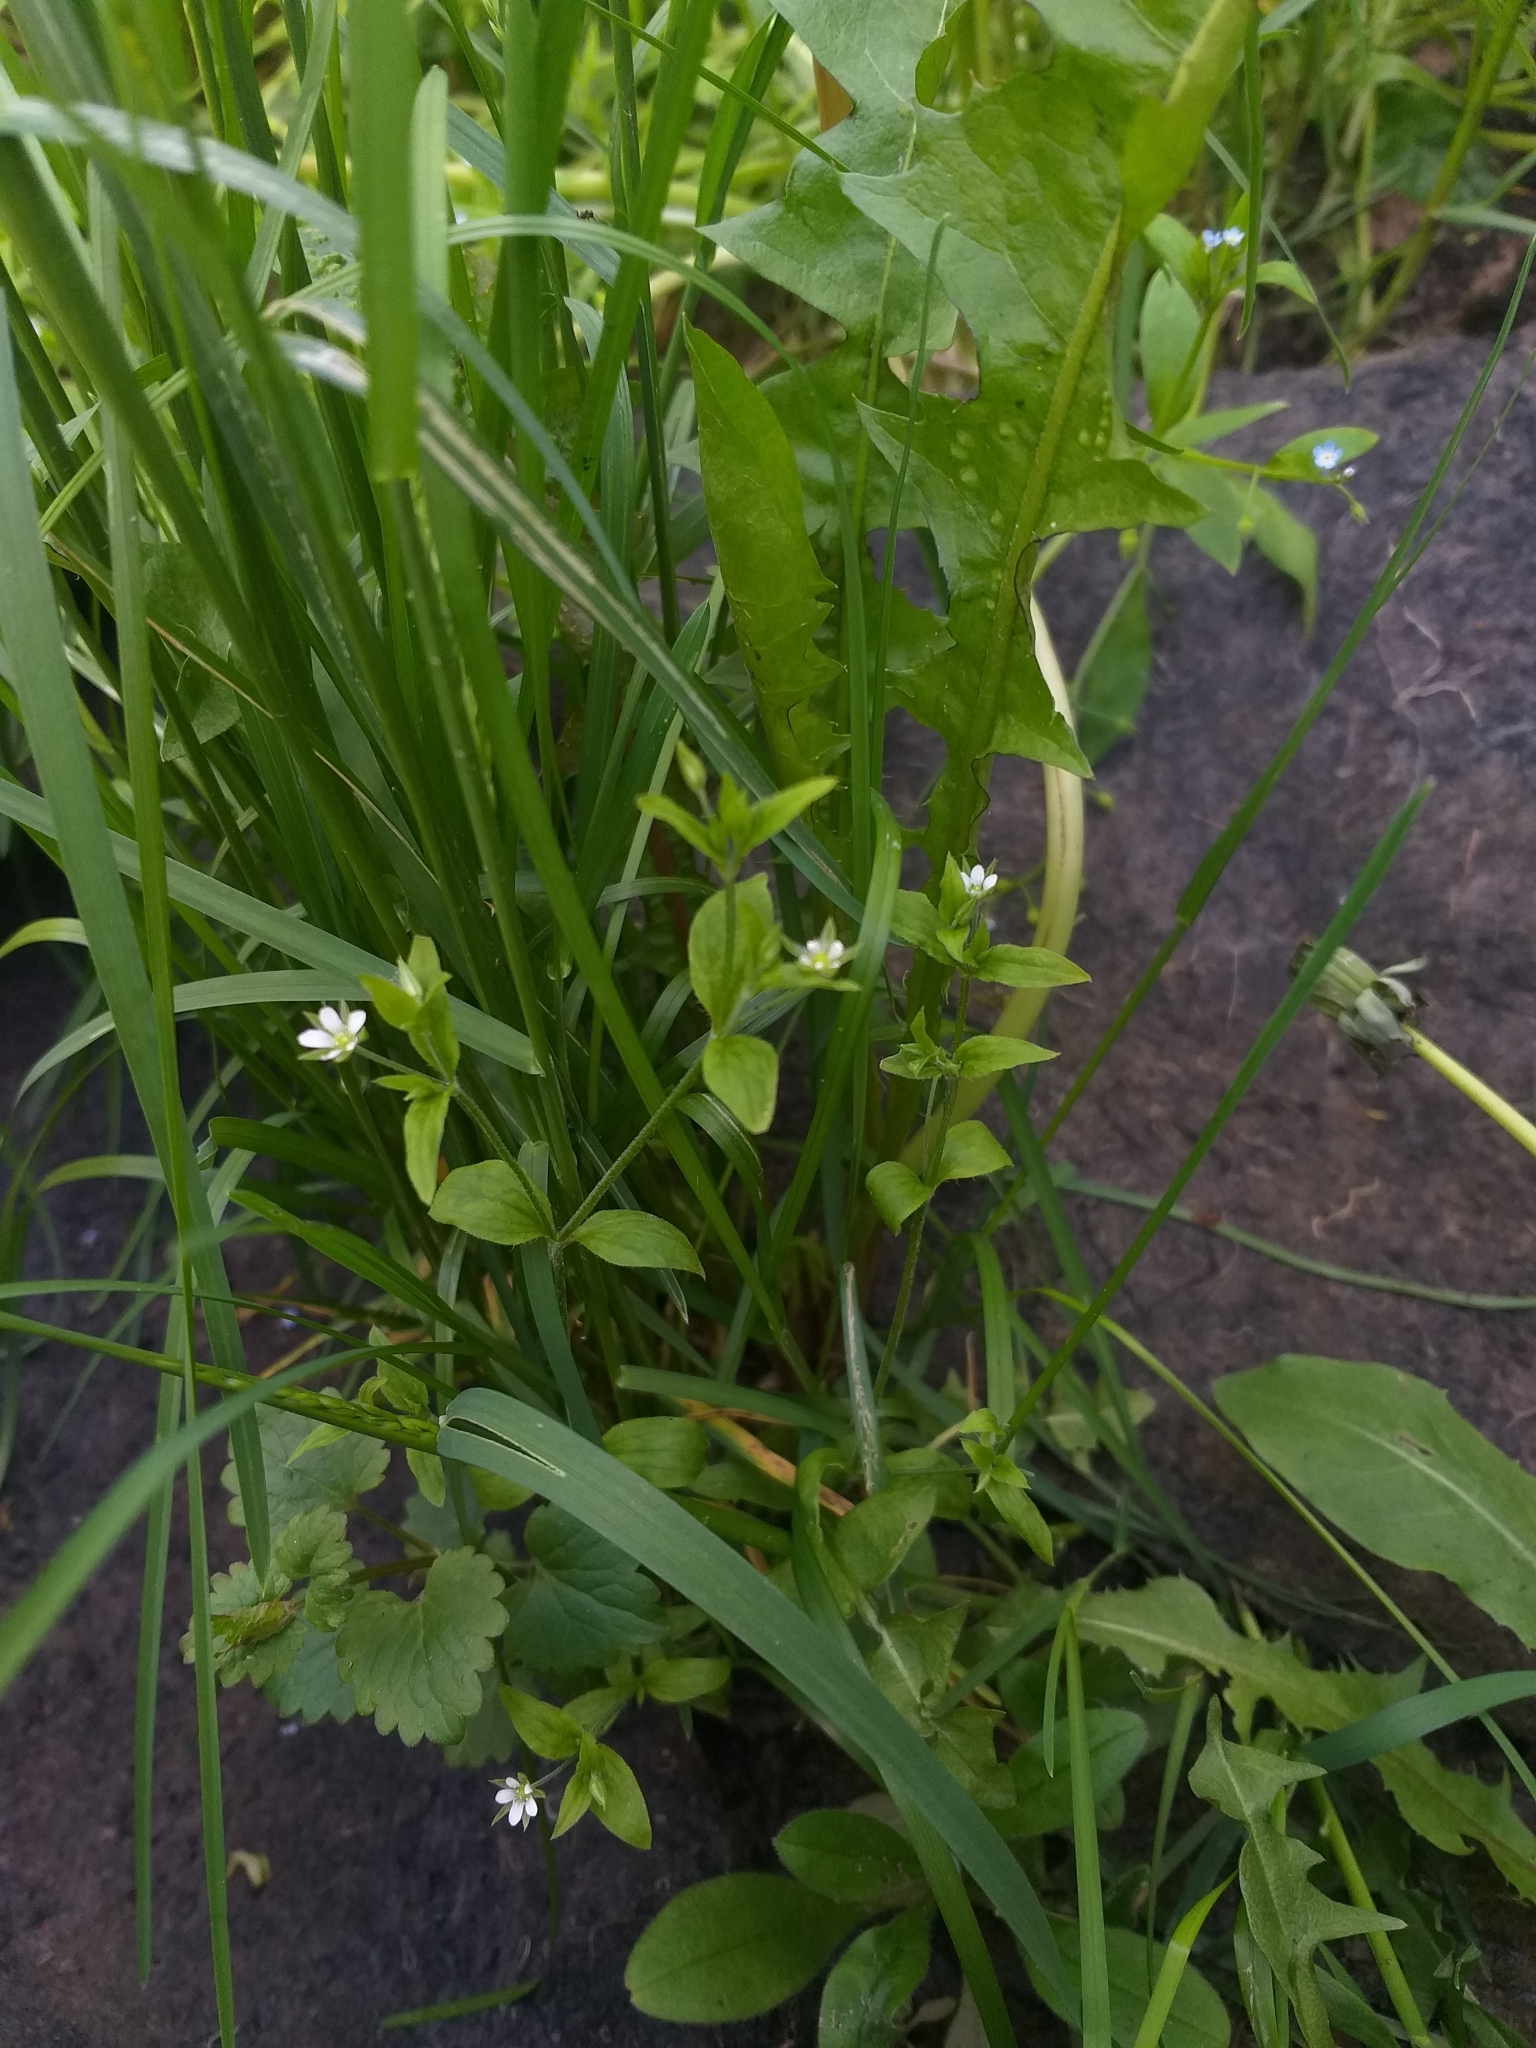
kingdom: Plantae
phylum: Tracheophyta
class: Magnoliopsida
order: Caryophyllales
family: Caryophyllaceae
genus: Moehringia
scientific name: Moehringia trinervia
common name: Three-nerved sandwort
